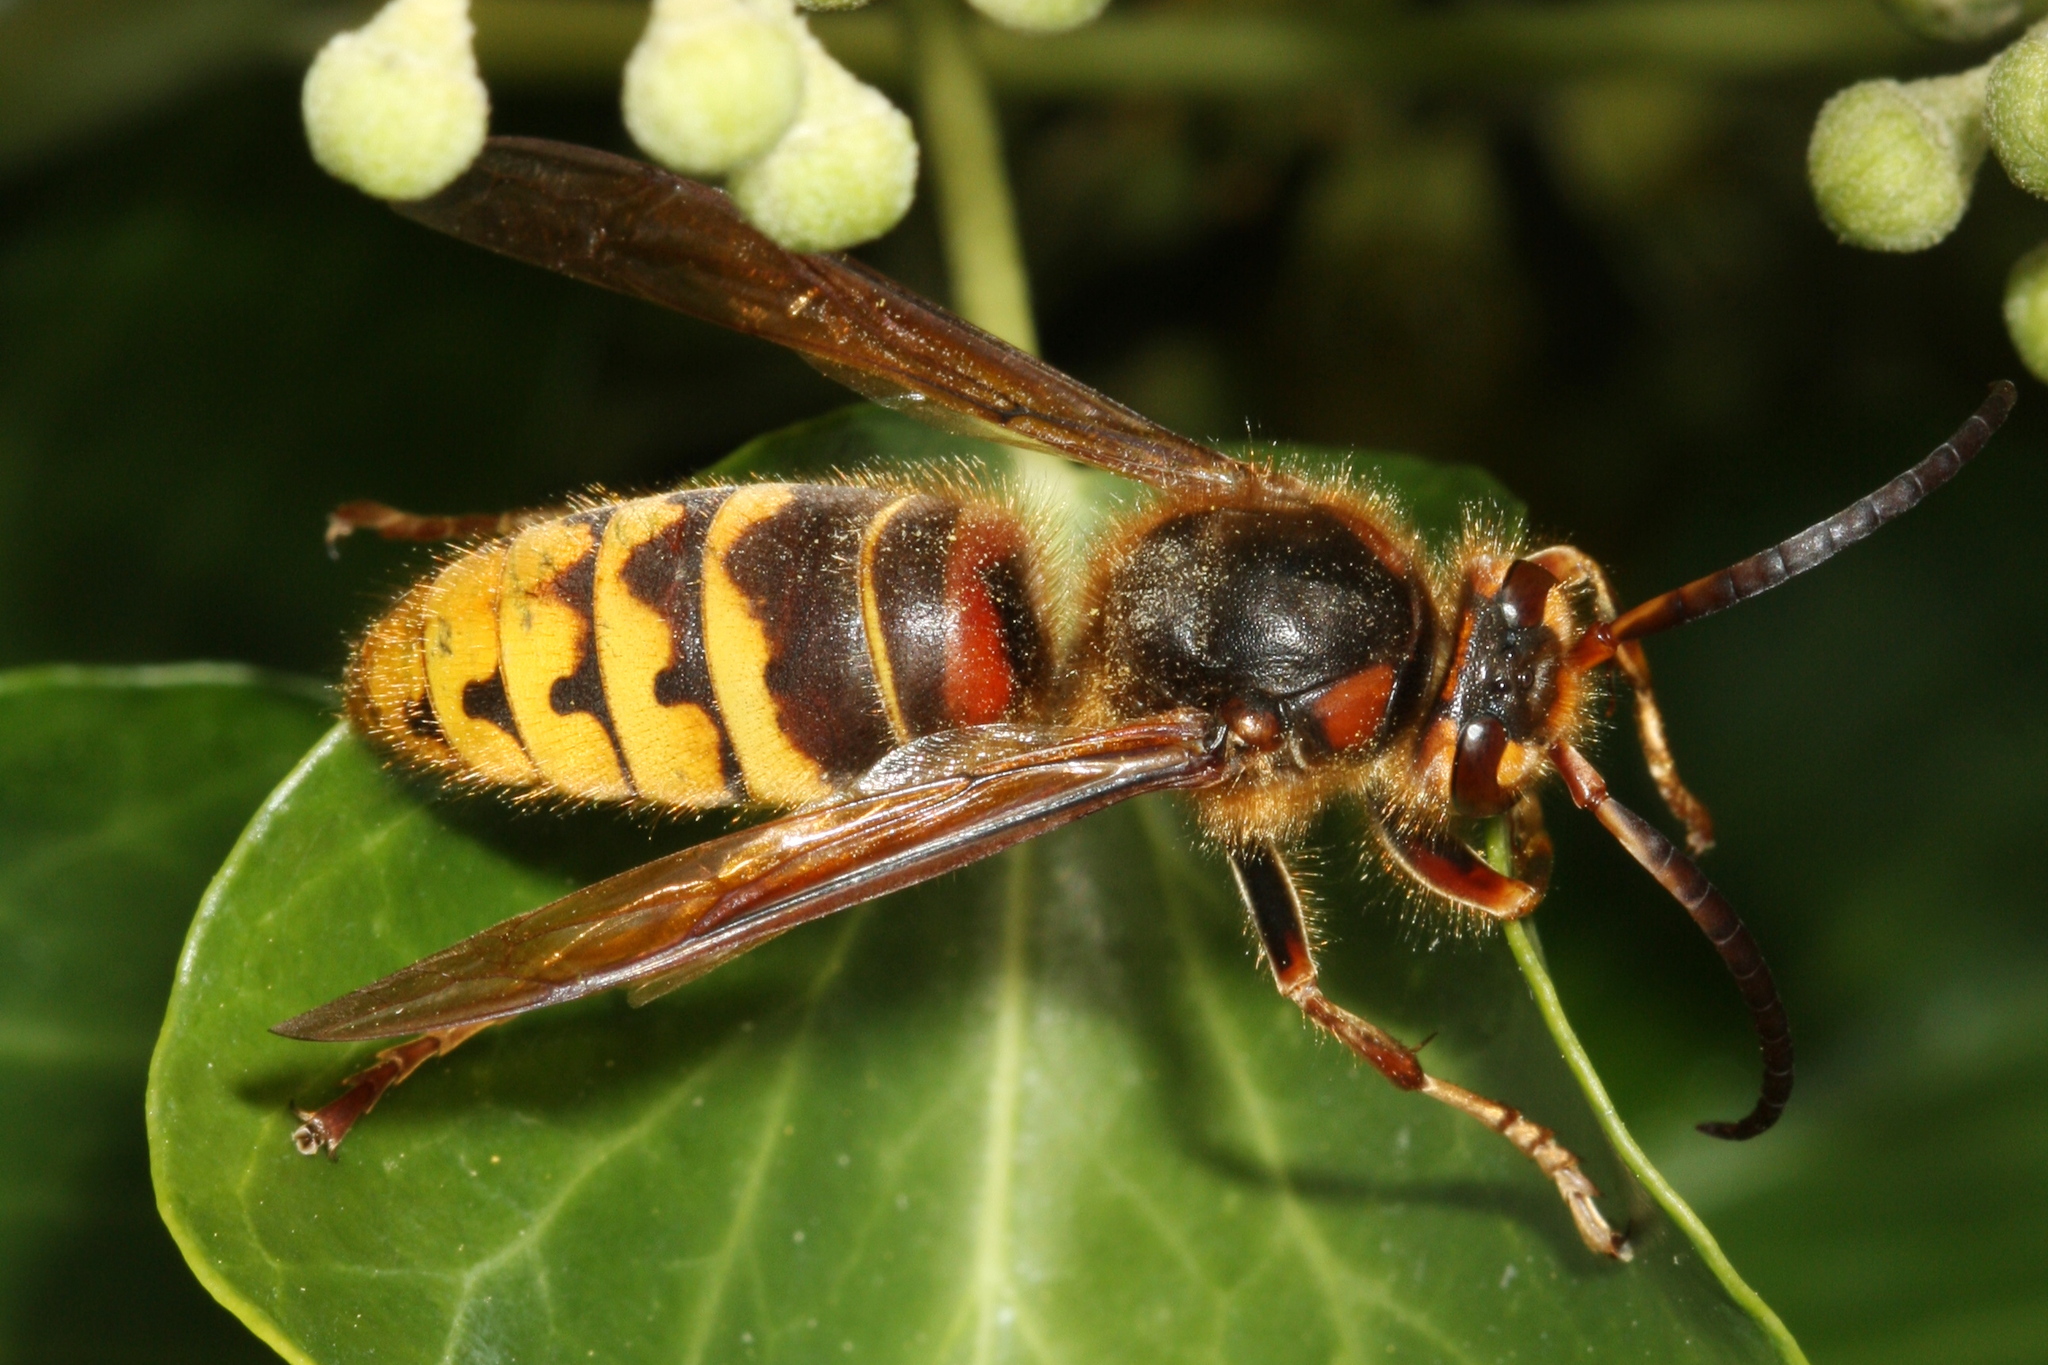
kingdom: Animalia
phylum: Arthropoda
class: Insecta
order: Hymenoptera
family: Vespidae
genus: Vespa
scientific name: Vespa crabro
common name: Hornet
